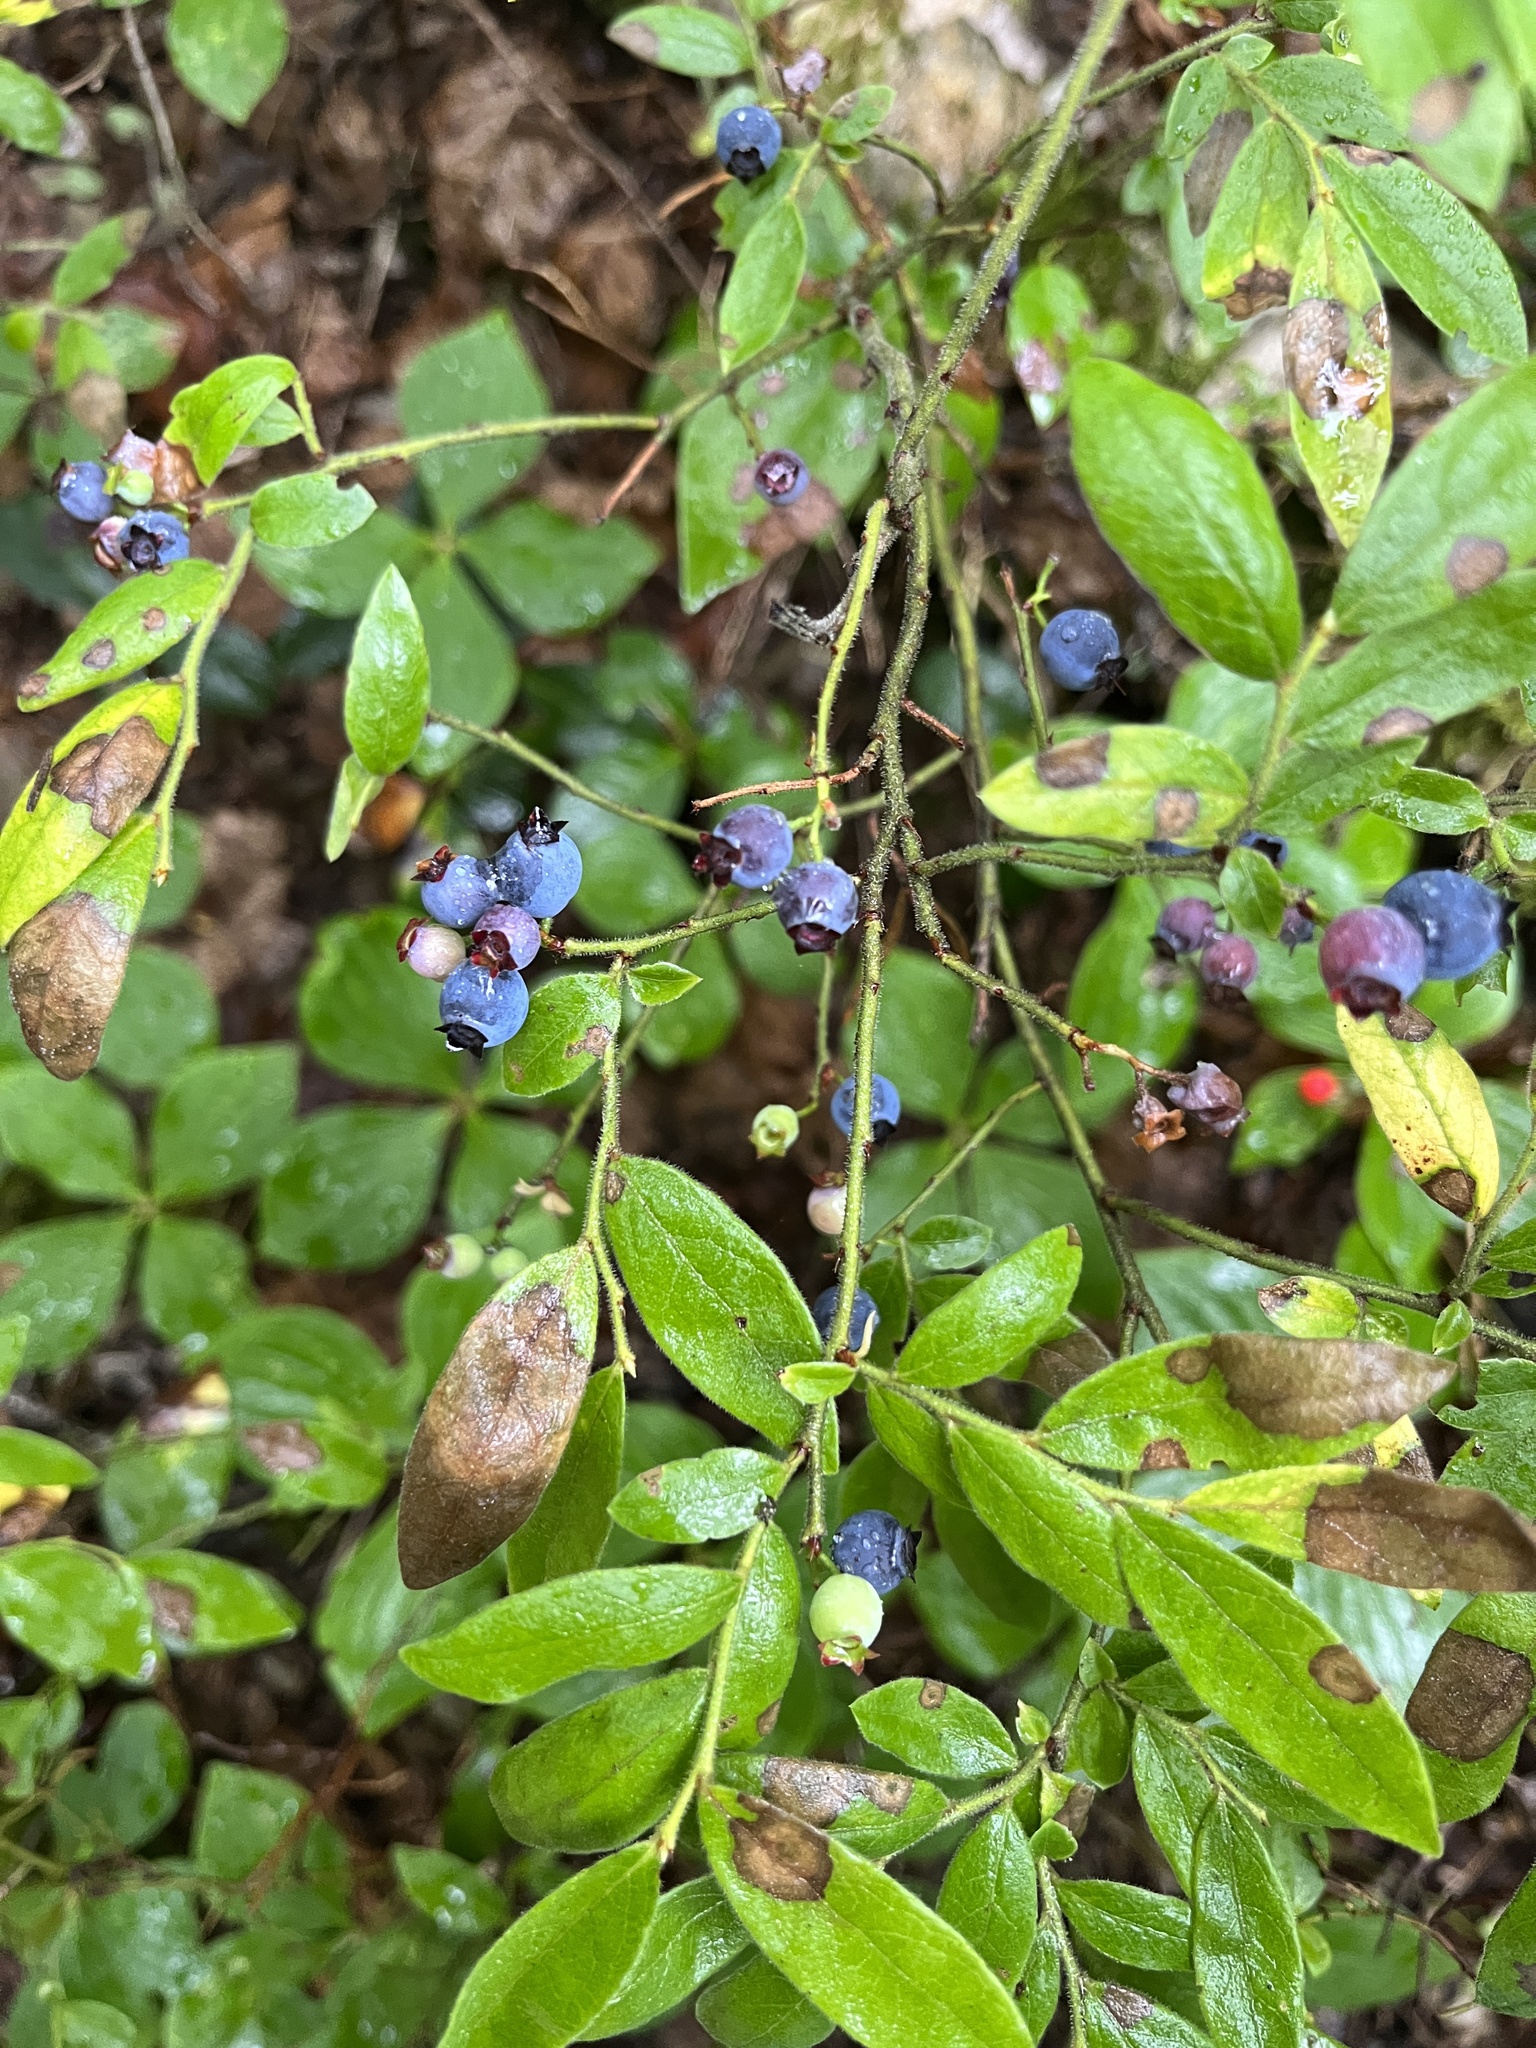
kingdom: Plantae
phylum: Tracheophyta
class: Magnoliopsida
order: Ericales
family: Ericaceae
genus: Vaccinium
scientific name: Vaccinium myrtilloides
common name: Canada blueberry
